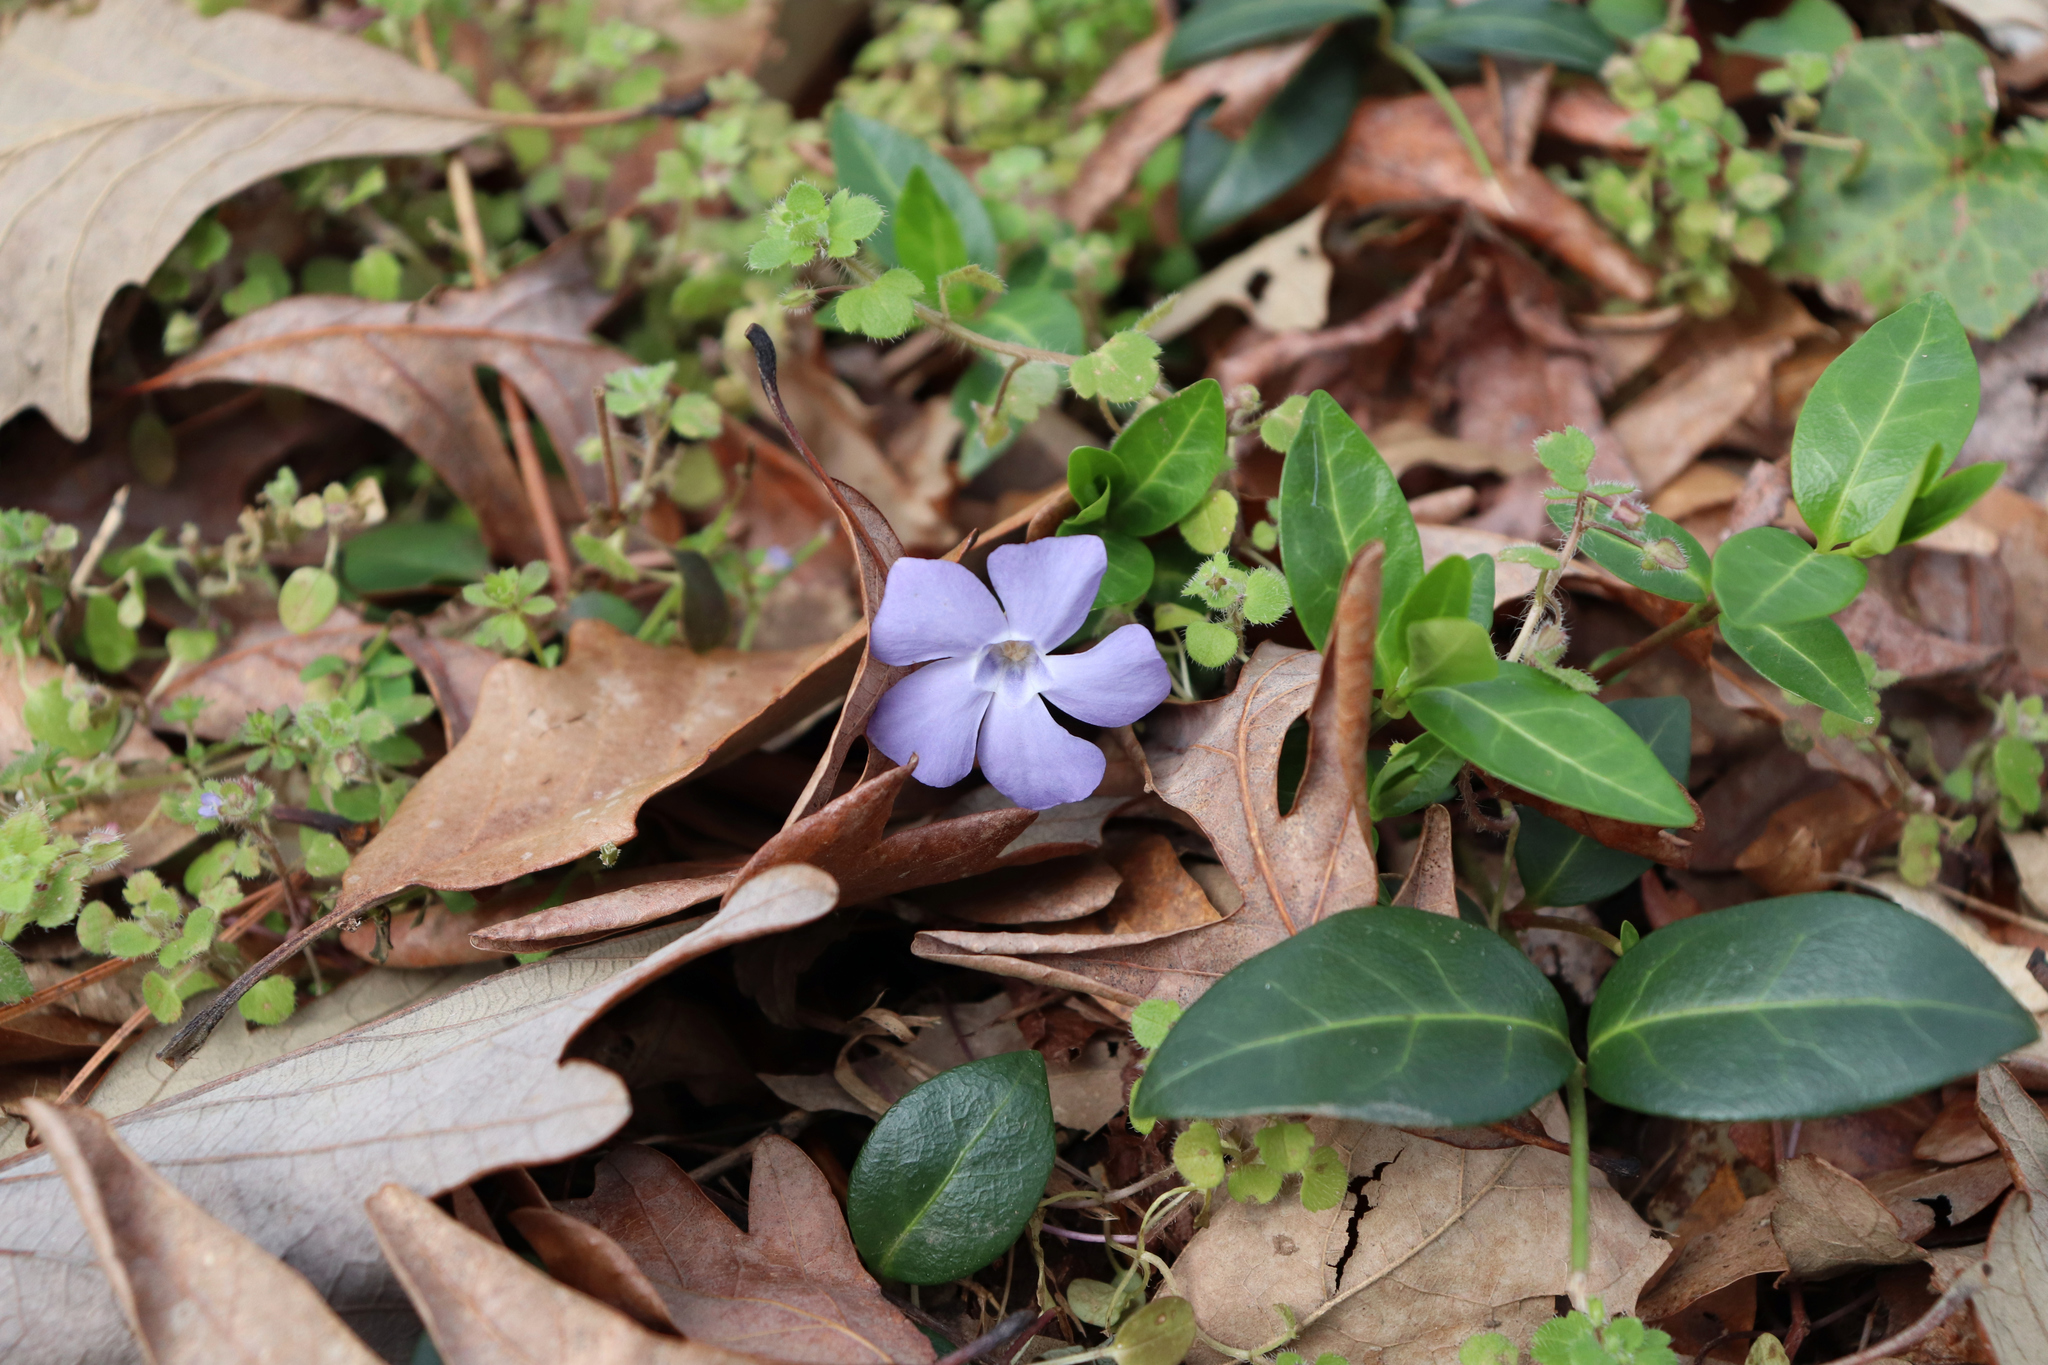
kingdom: Plantae
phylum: Tracheophyta
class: Magnoliopsida
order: Gentianales
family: Apocynaceae
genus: Vinca
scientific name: Vinca minor
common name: Lesser periwinkle
